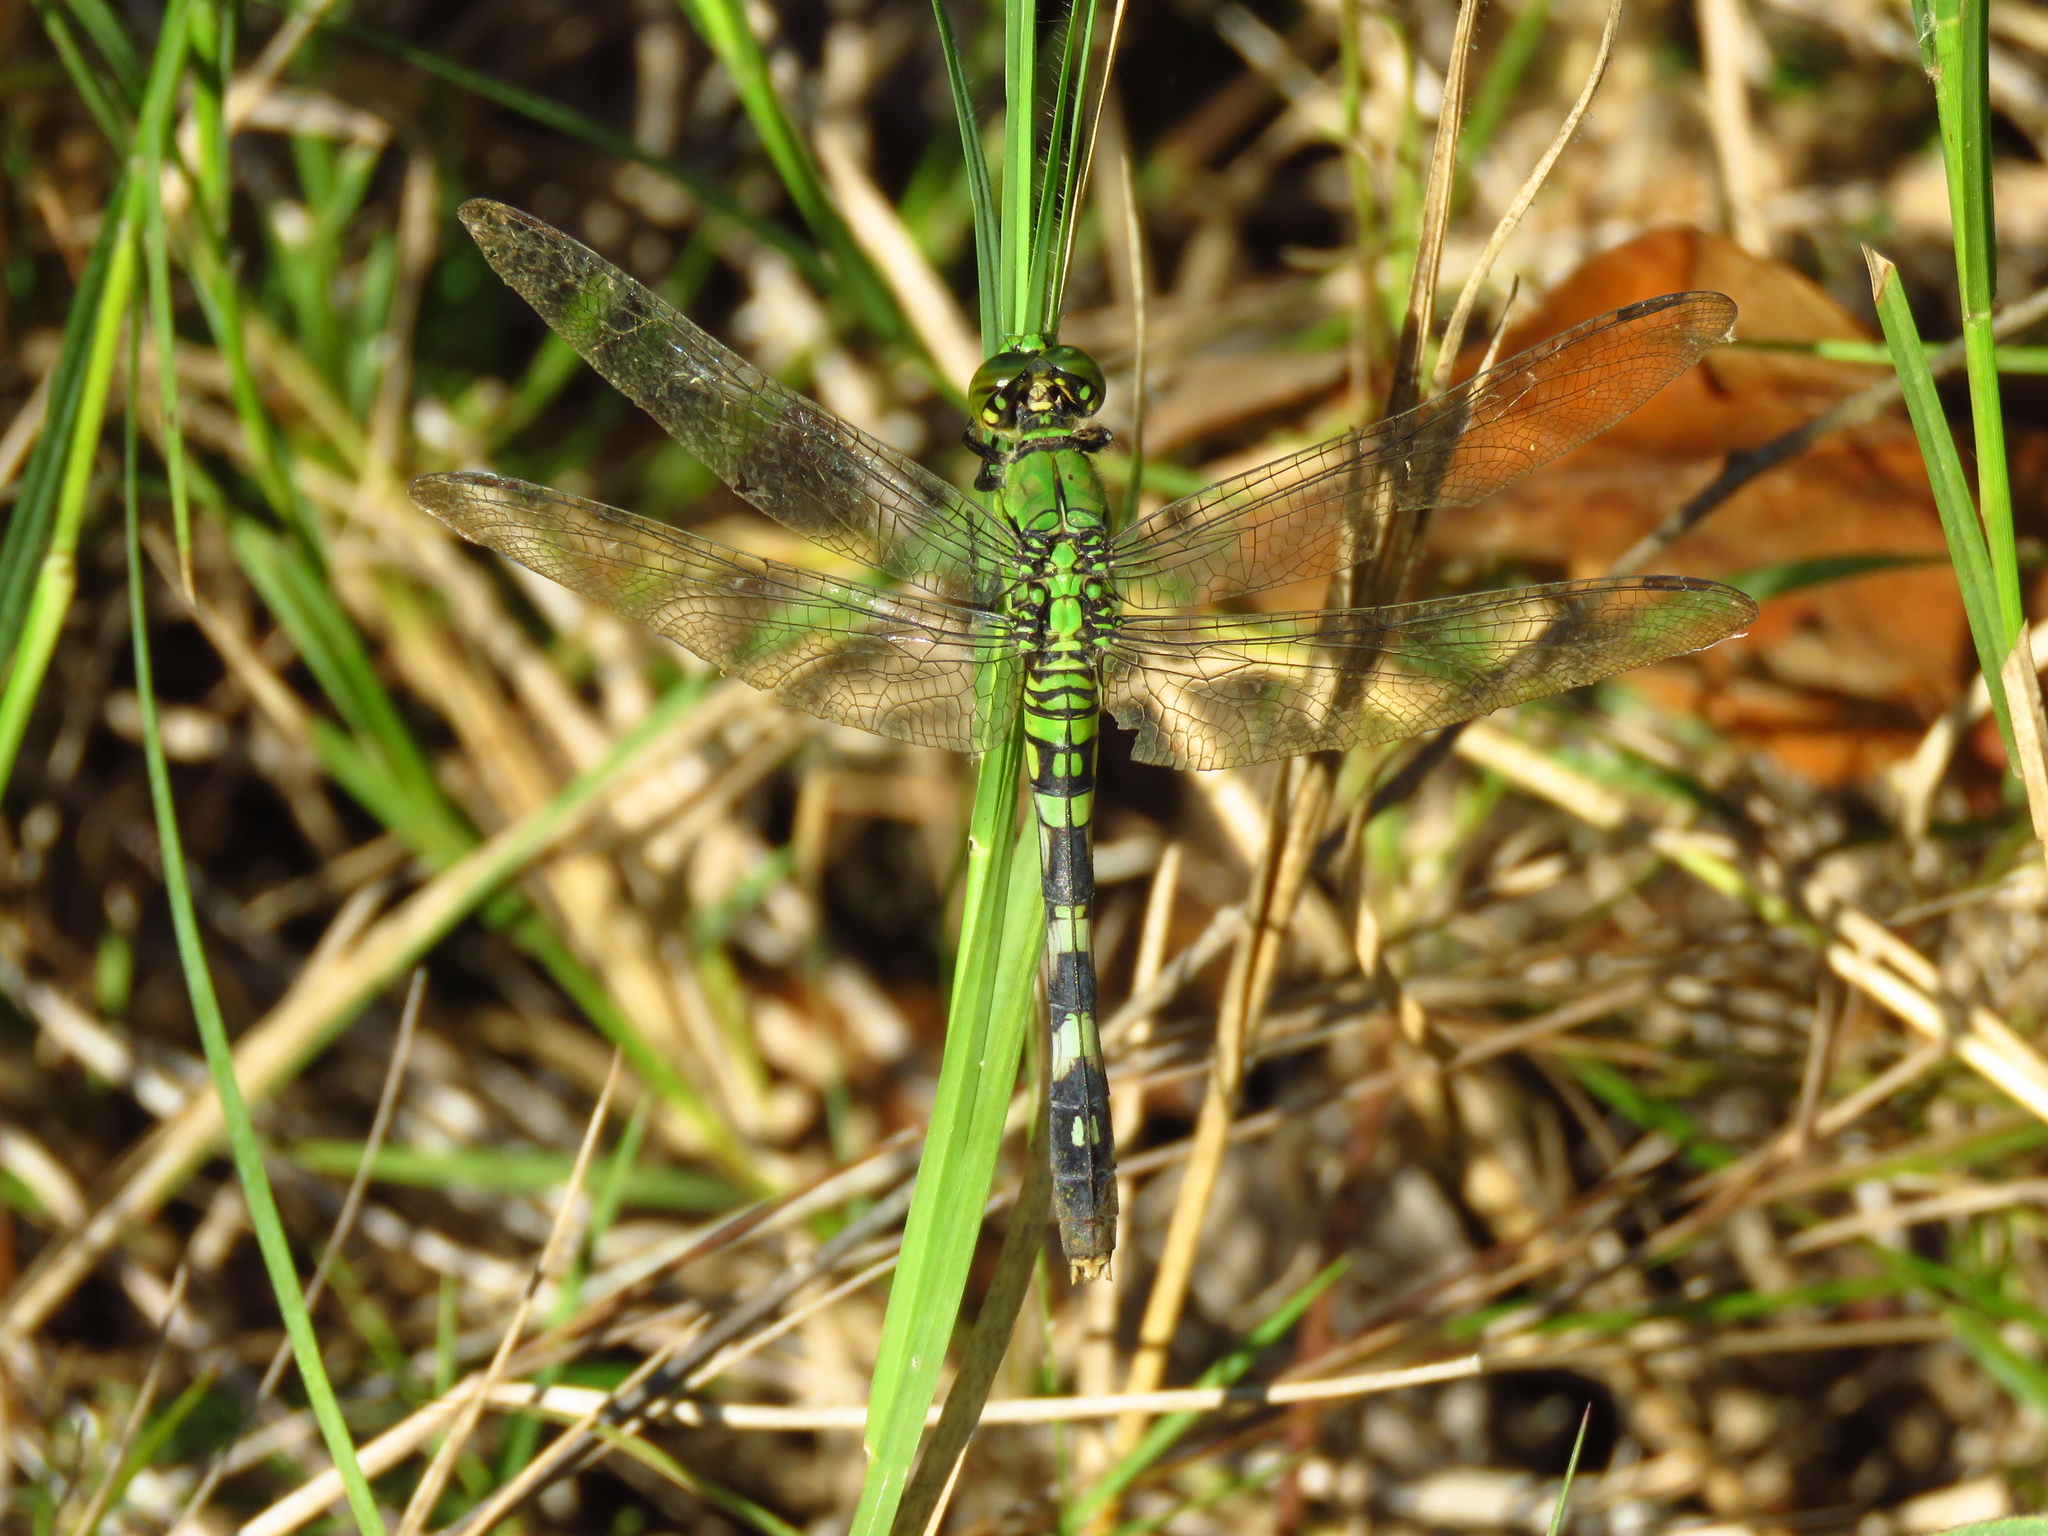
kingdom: Animalia
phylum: Arthropoda
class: Insecta
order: Odonata
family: Libellulidae
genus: Erythemis
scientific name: Erythemis simplicicollis
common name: Eastern pondhawk
